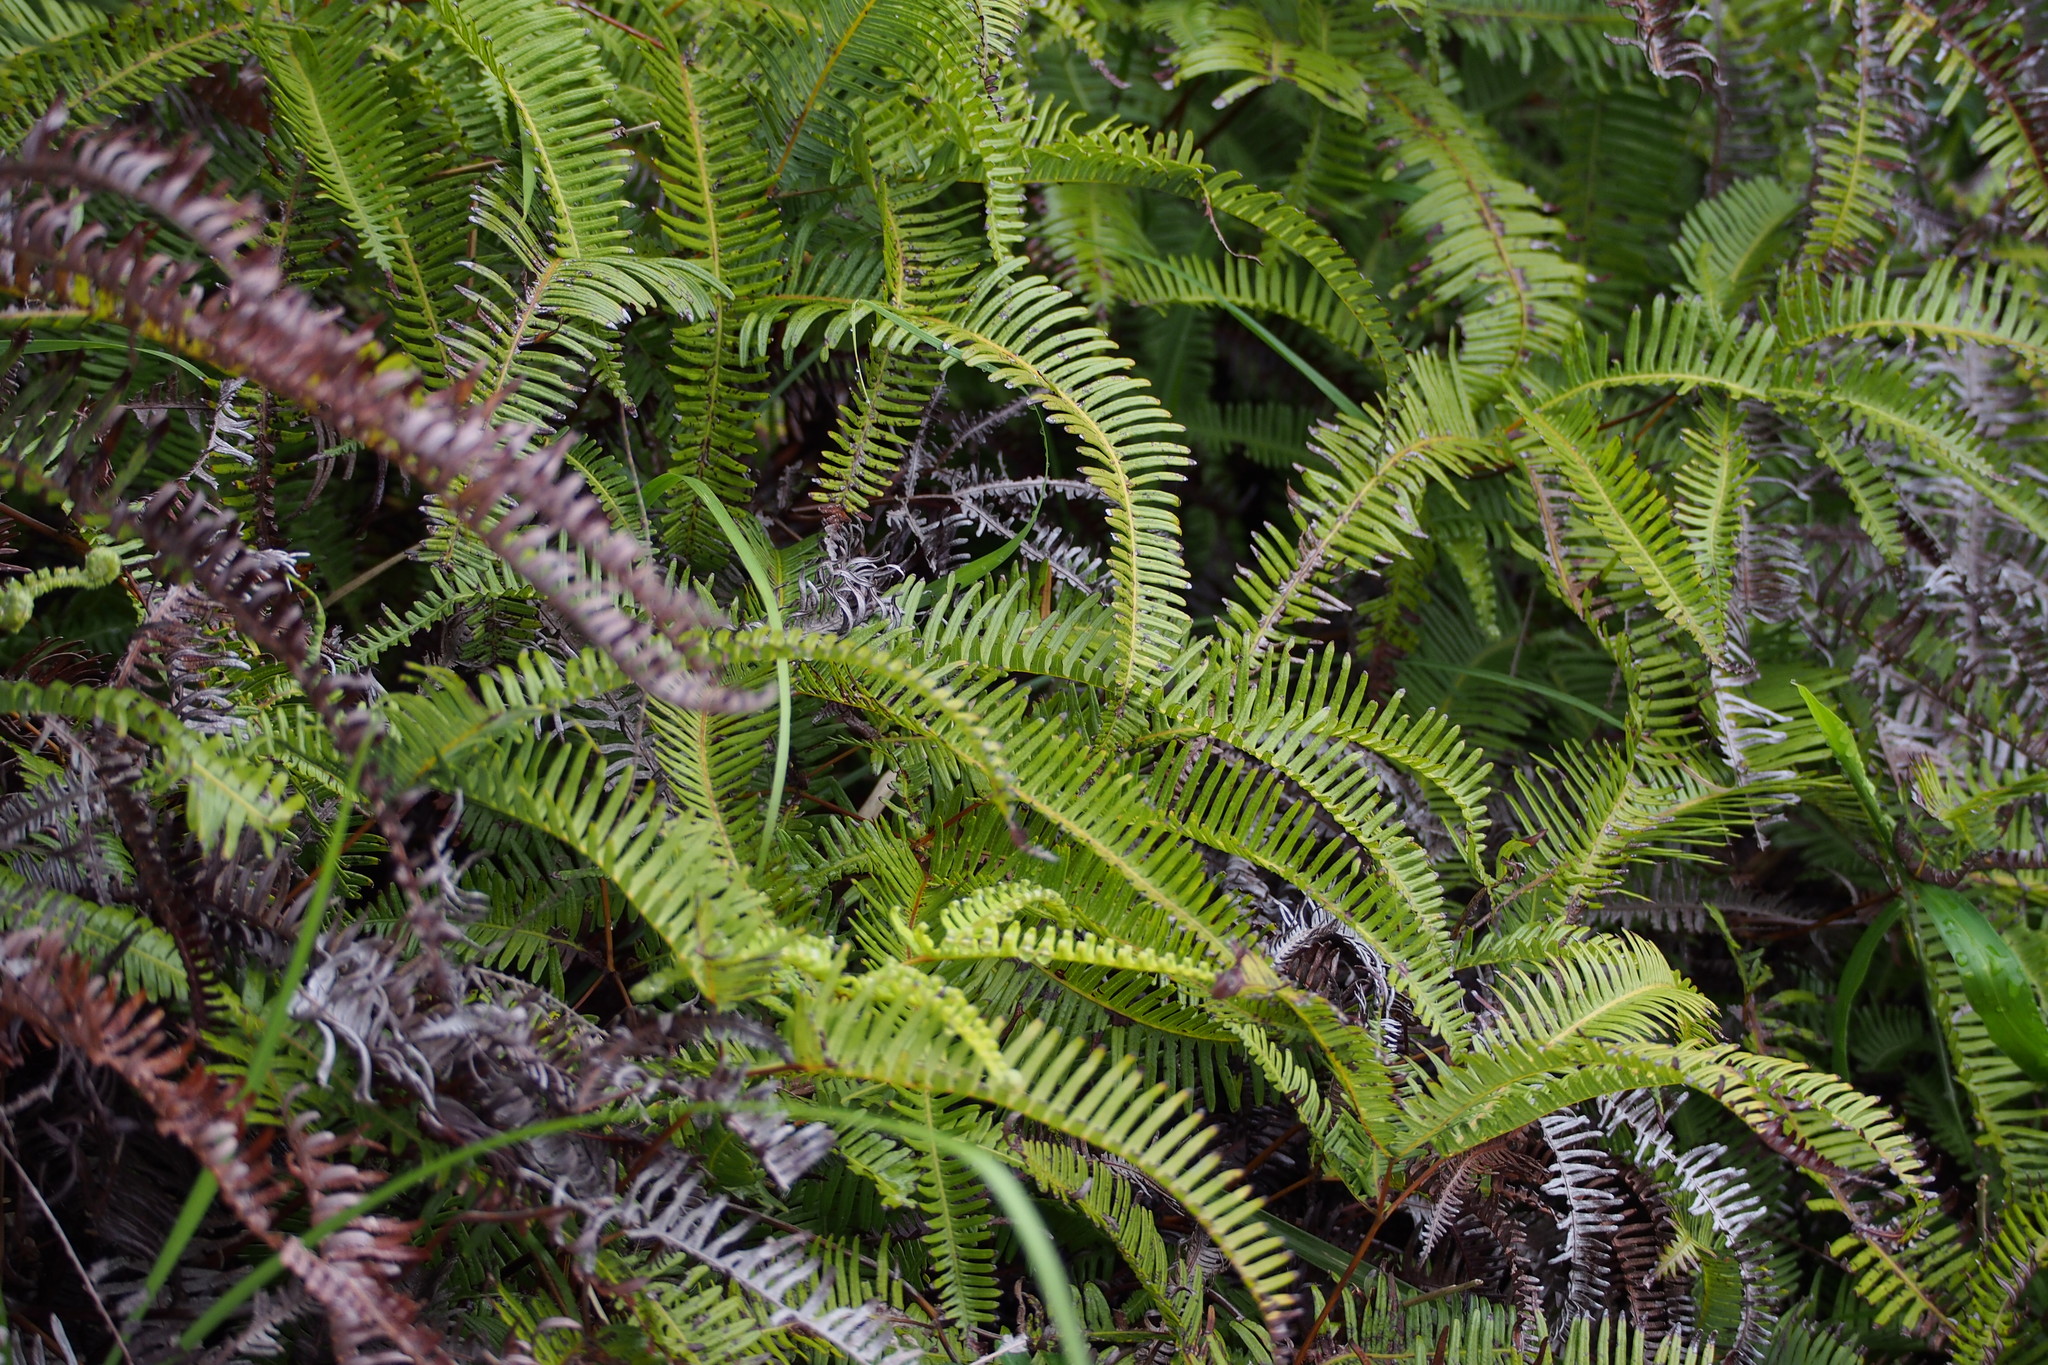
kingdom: Plantae
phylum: Tracheophyta
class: Polypodiopsida
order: Gleicheniales
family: Gleicheniaceae
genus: Dicranopteris
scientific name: Dicranopteris linearis
